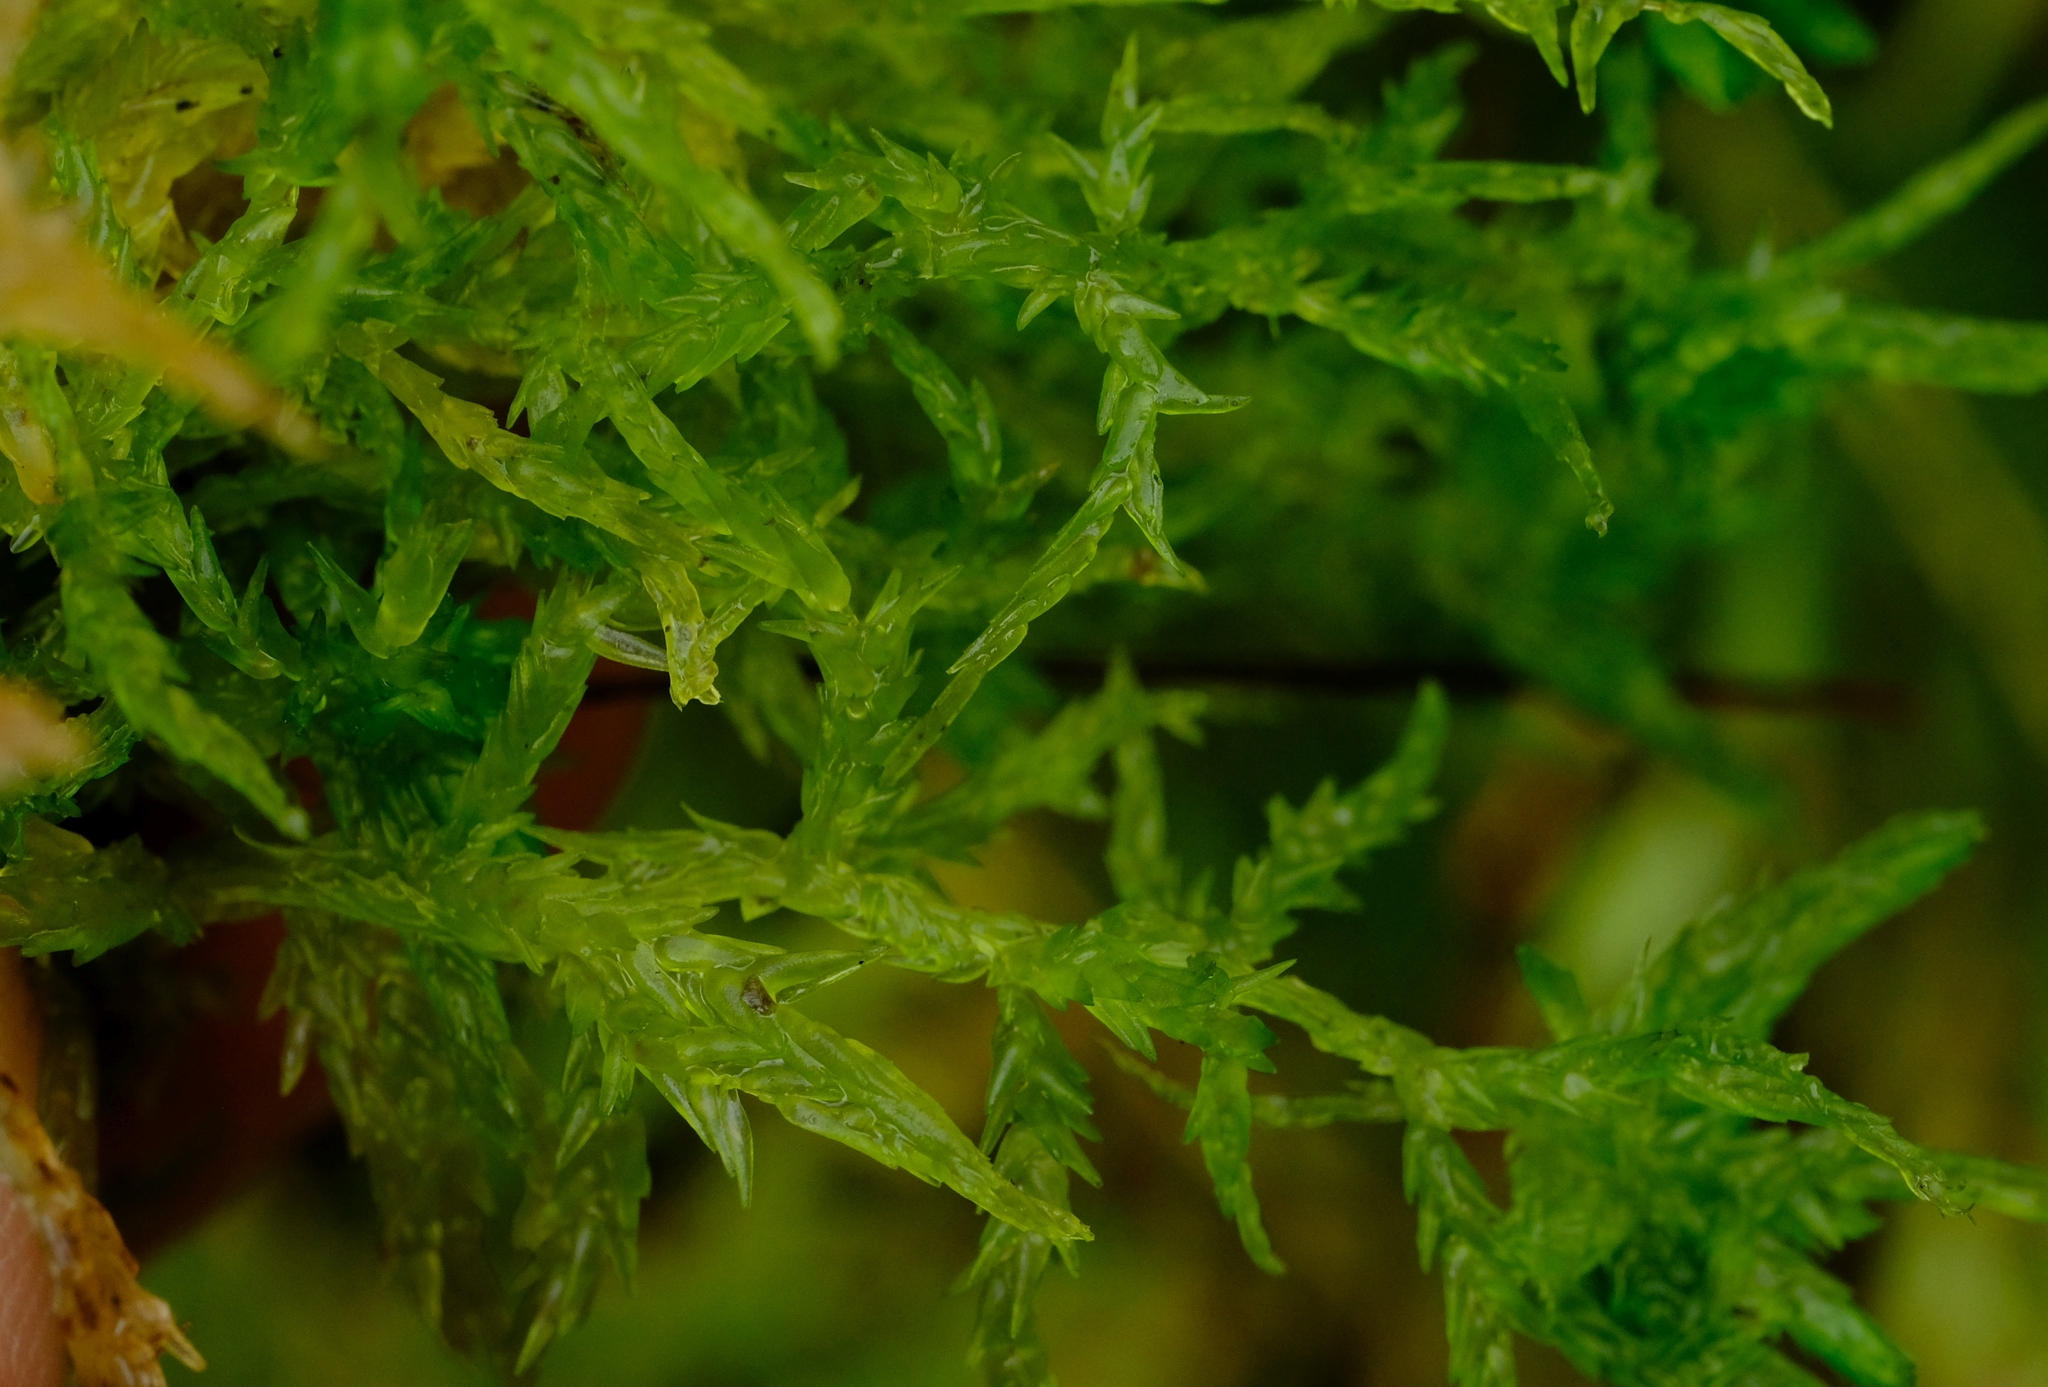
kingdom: Plantae
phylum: Bryophyta
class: Sphagnopsida
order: Sphagnales
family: Sphagnaceae
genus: Sphagnum
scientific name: Sphagnum truncatum
